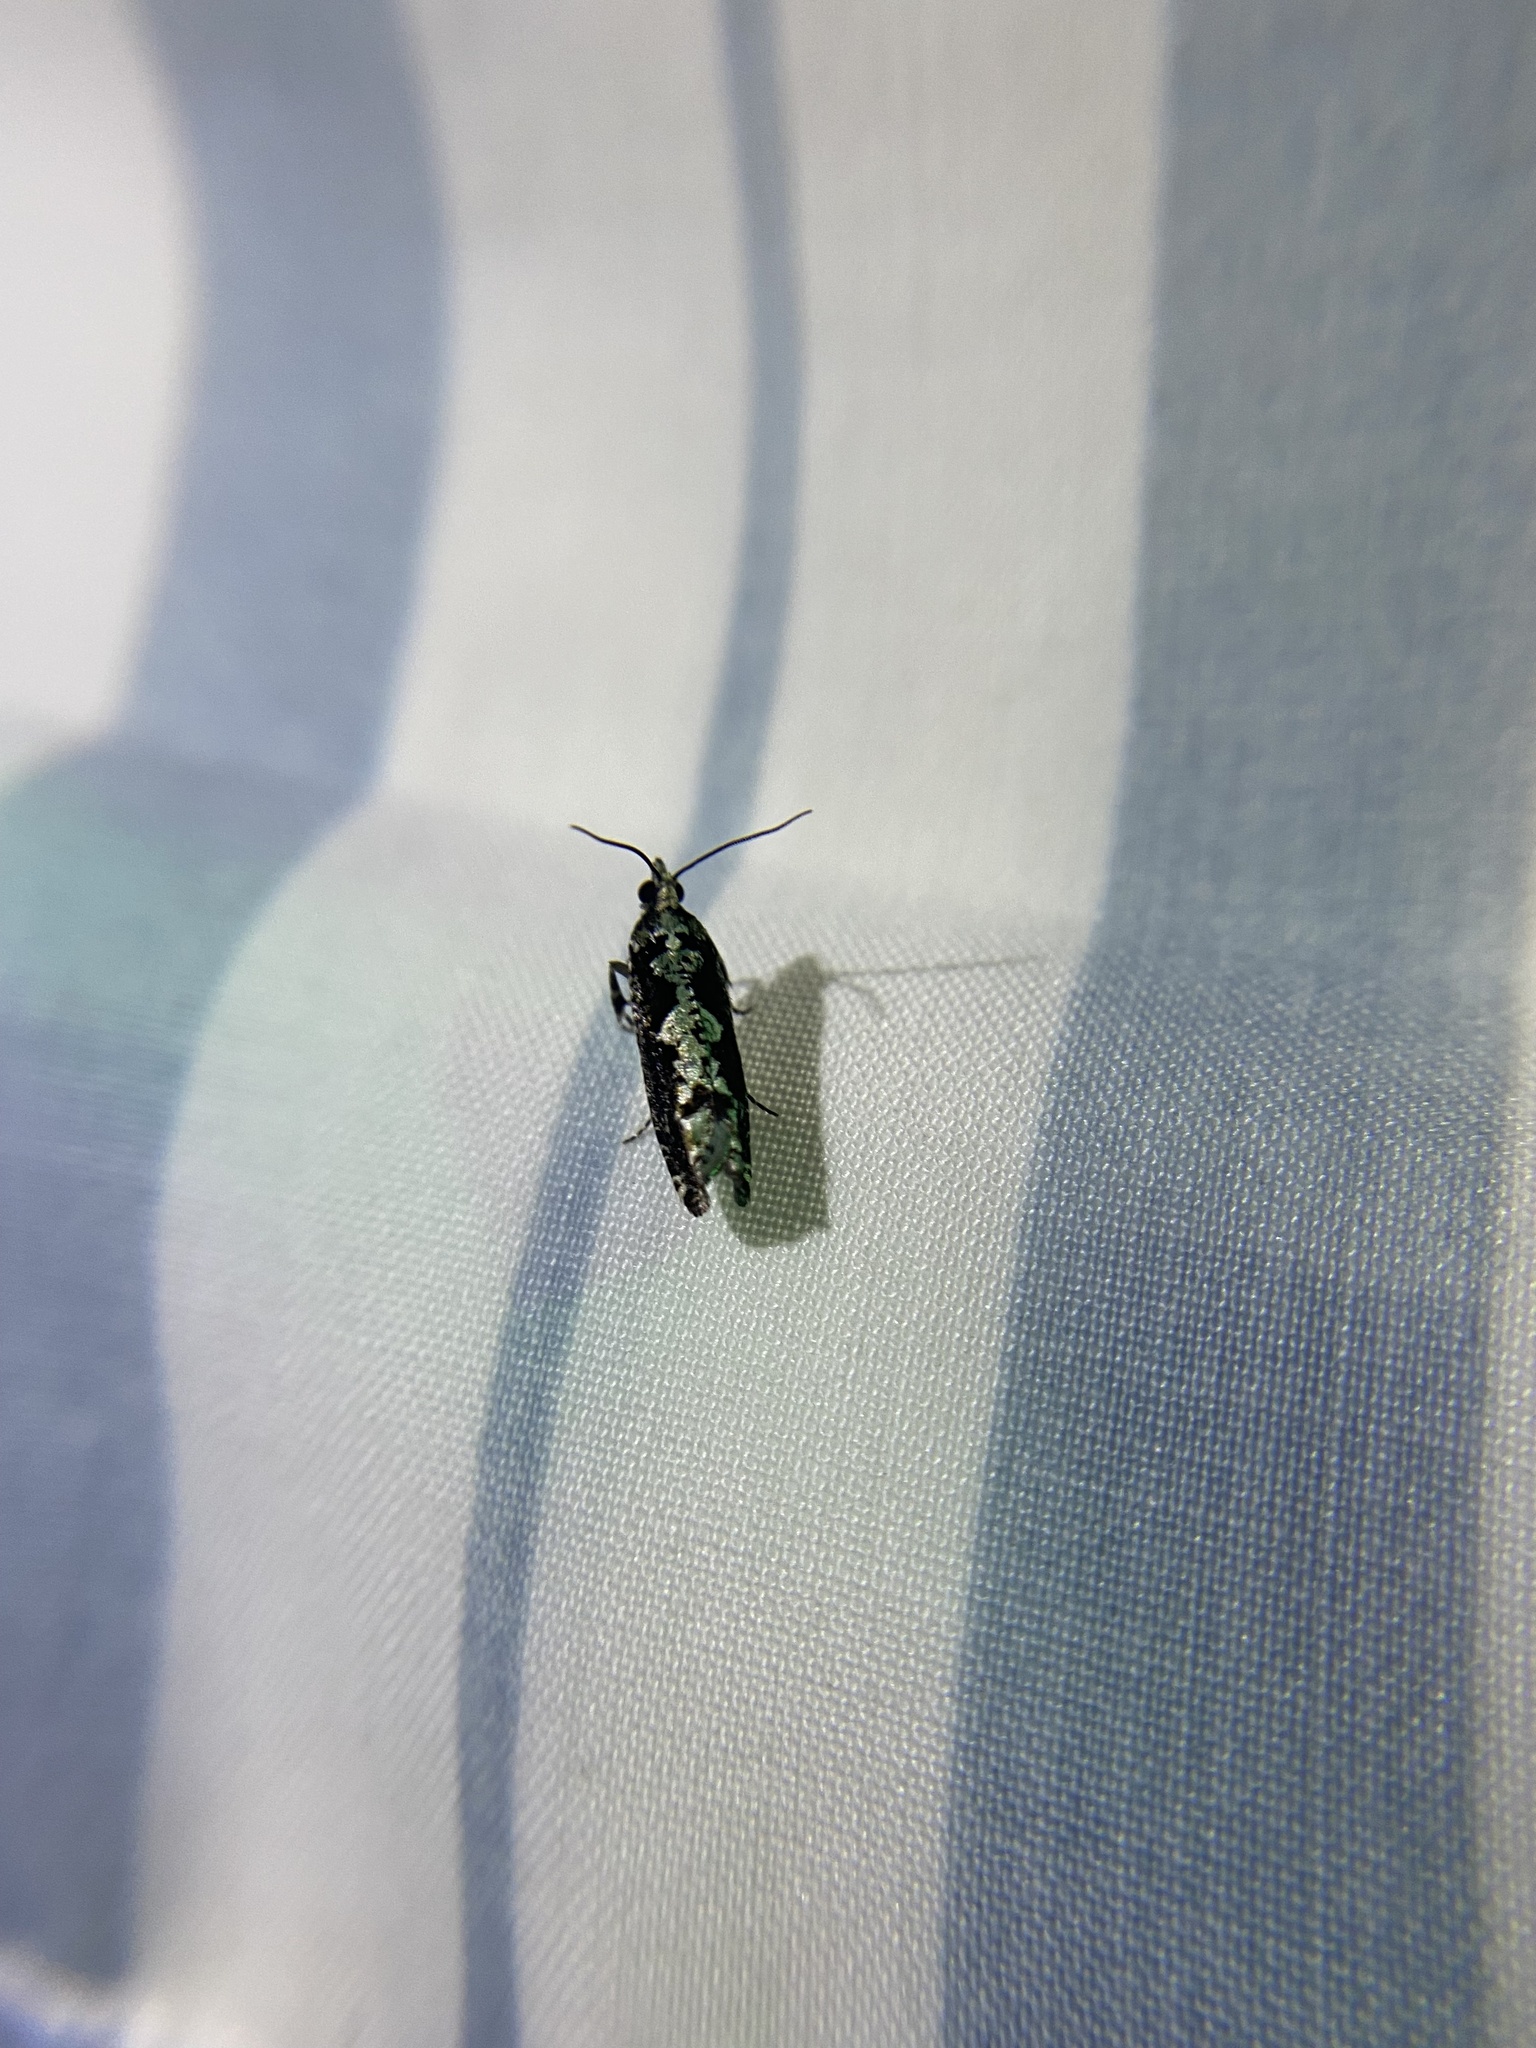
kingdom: Animalia
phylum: Arthropoda
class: Insecta
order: Lepidoptera
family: Tortricidae
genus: Chimoptesis
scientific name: Chimoptesis pennsylvaniana
